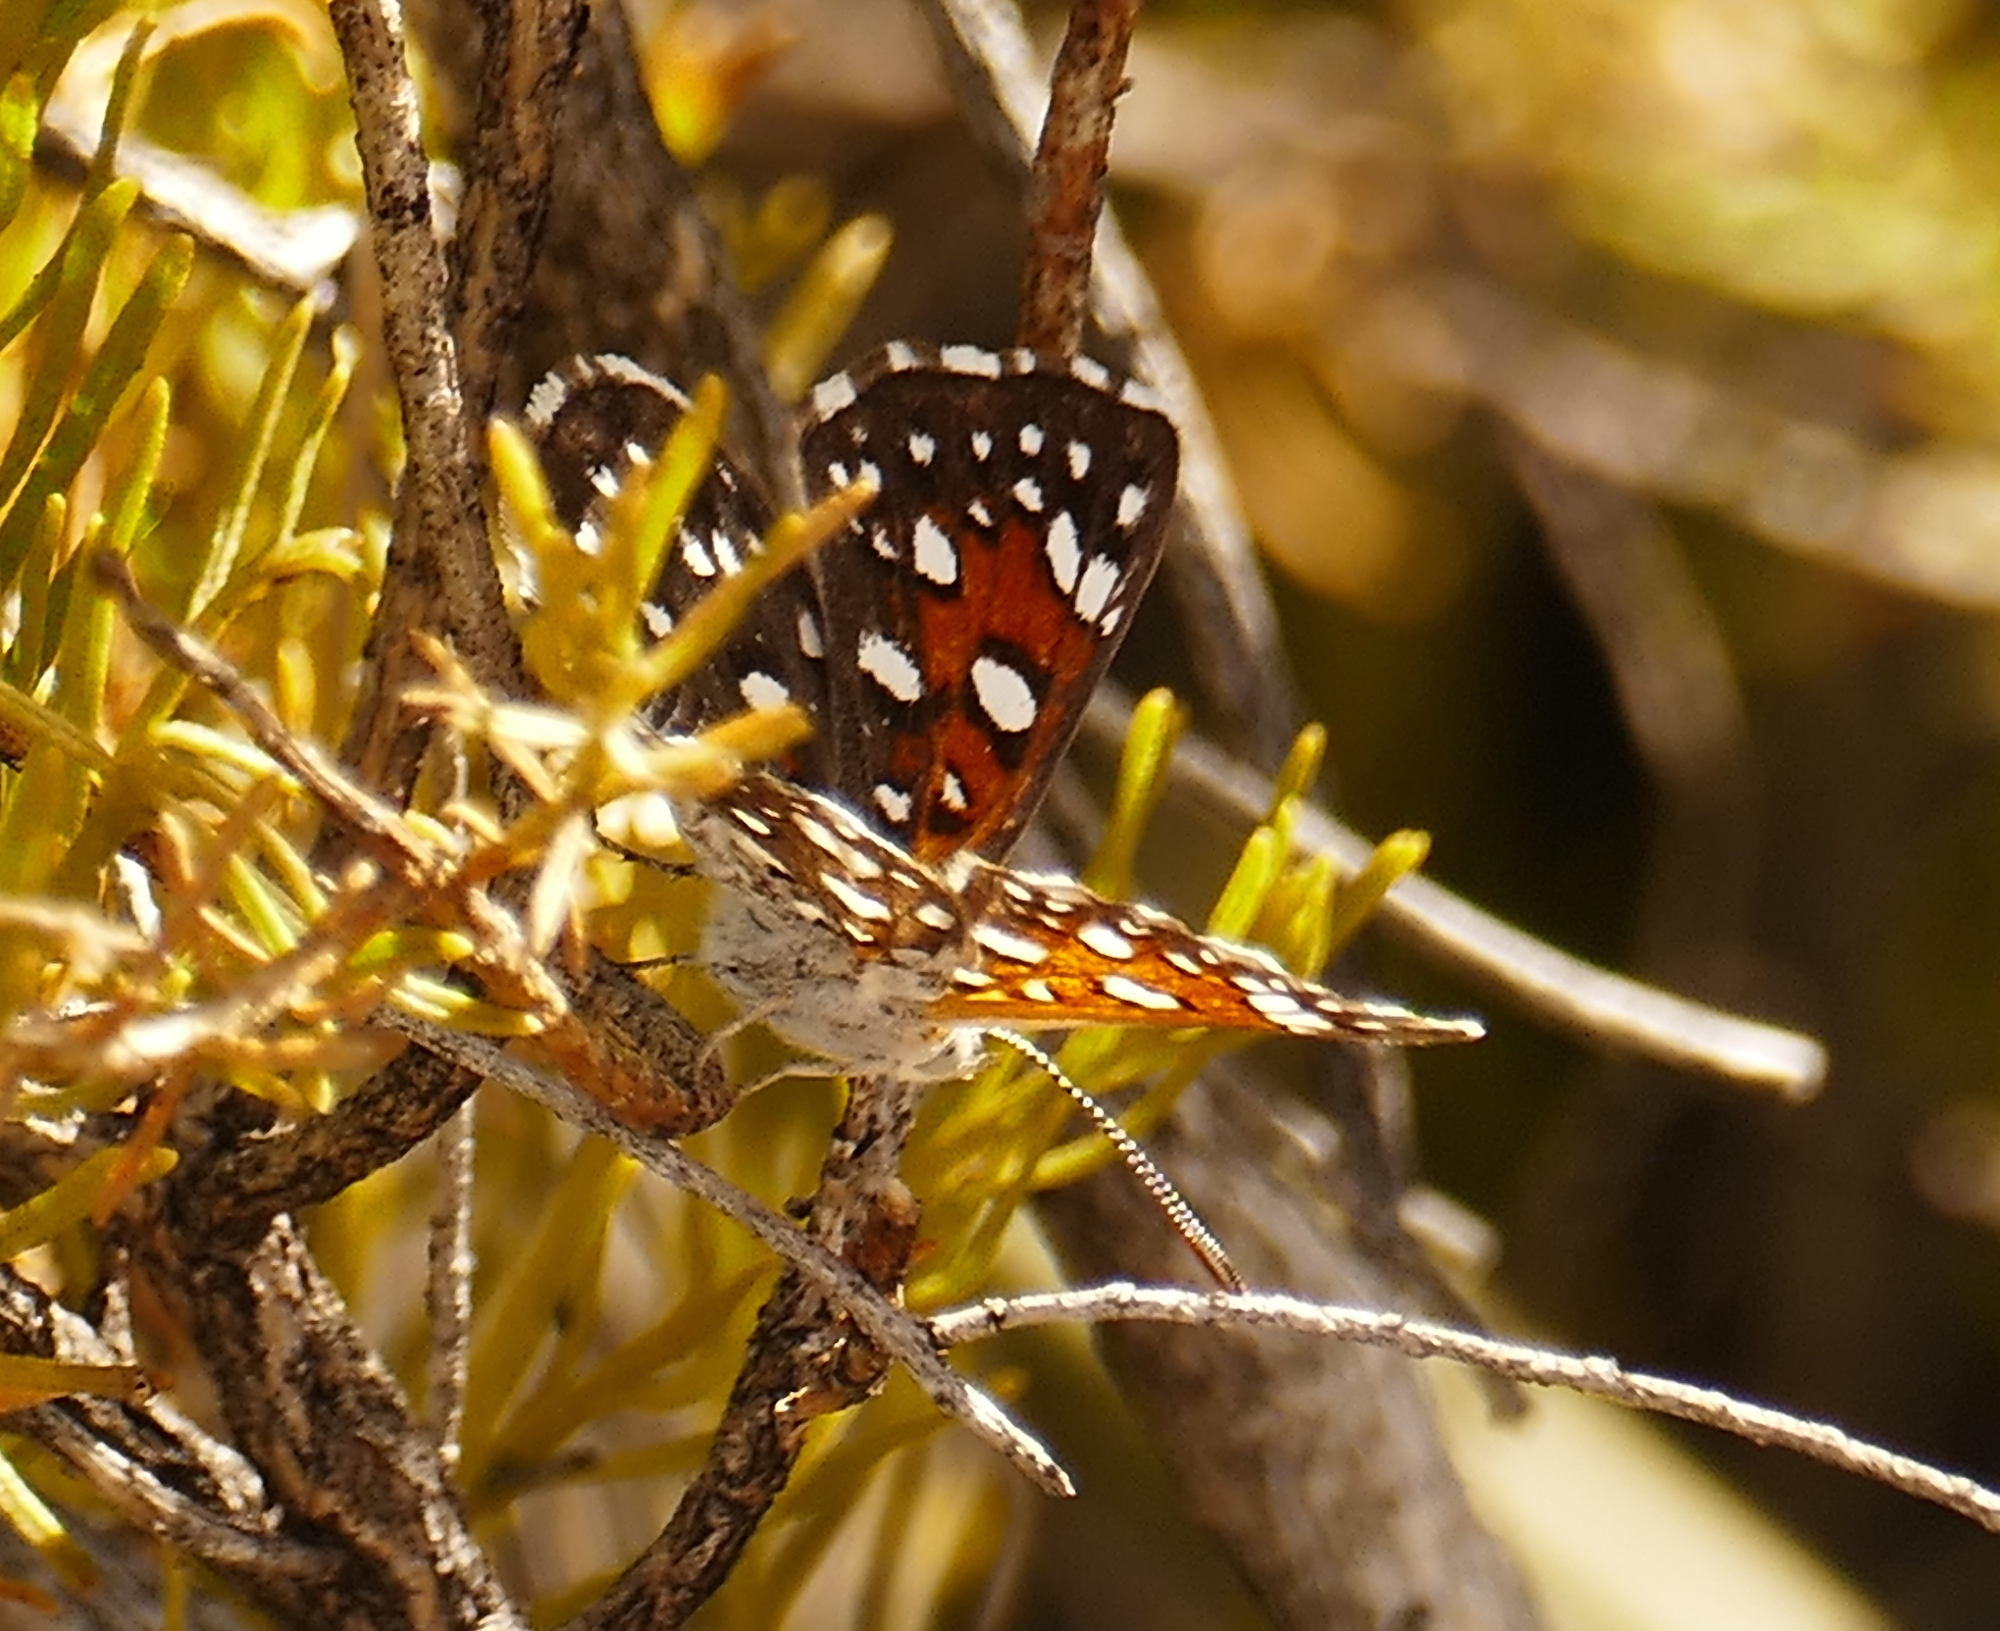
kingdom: Animalia
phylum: Arthropoda
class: Insecta
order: Lepidoptera
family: Riodinidae
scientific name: Riodinidae
